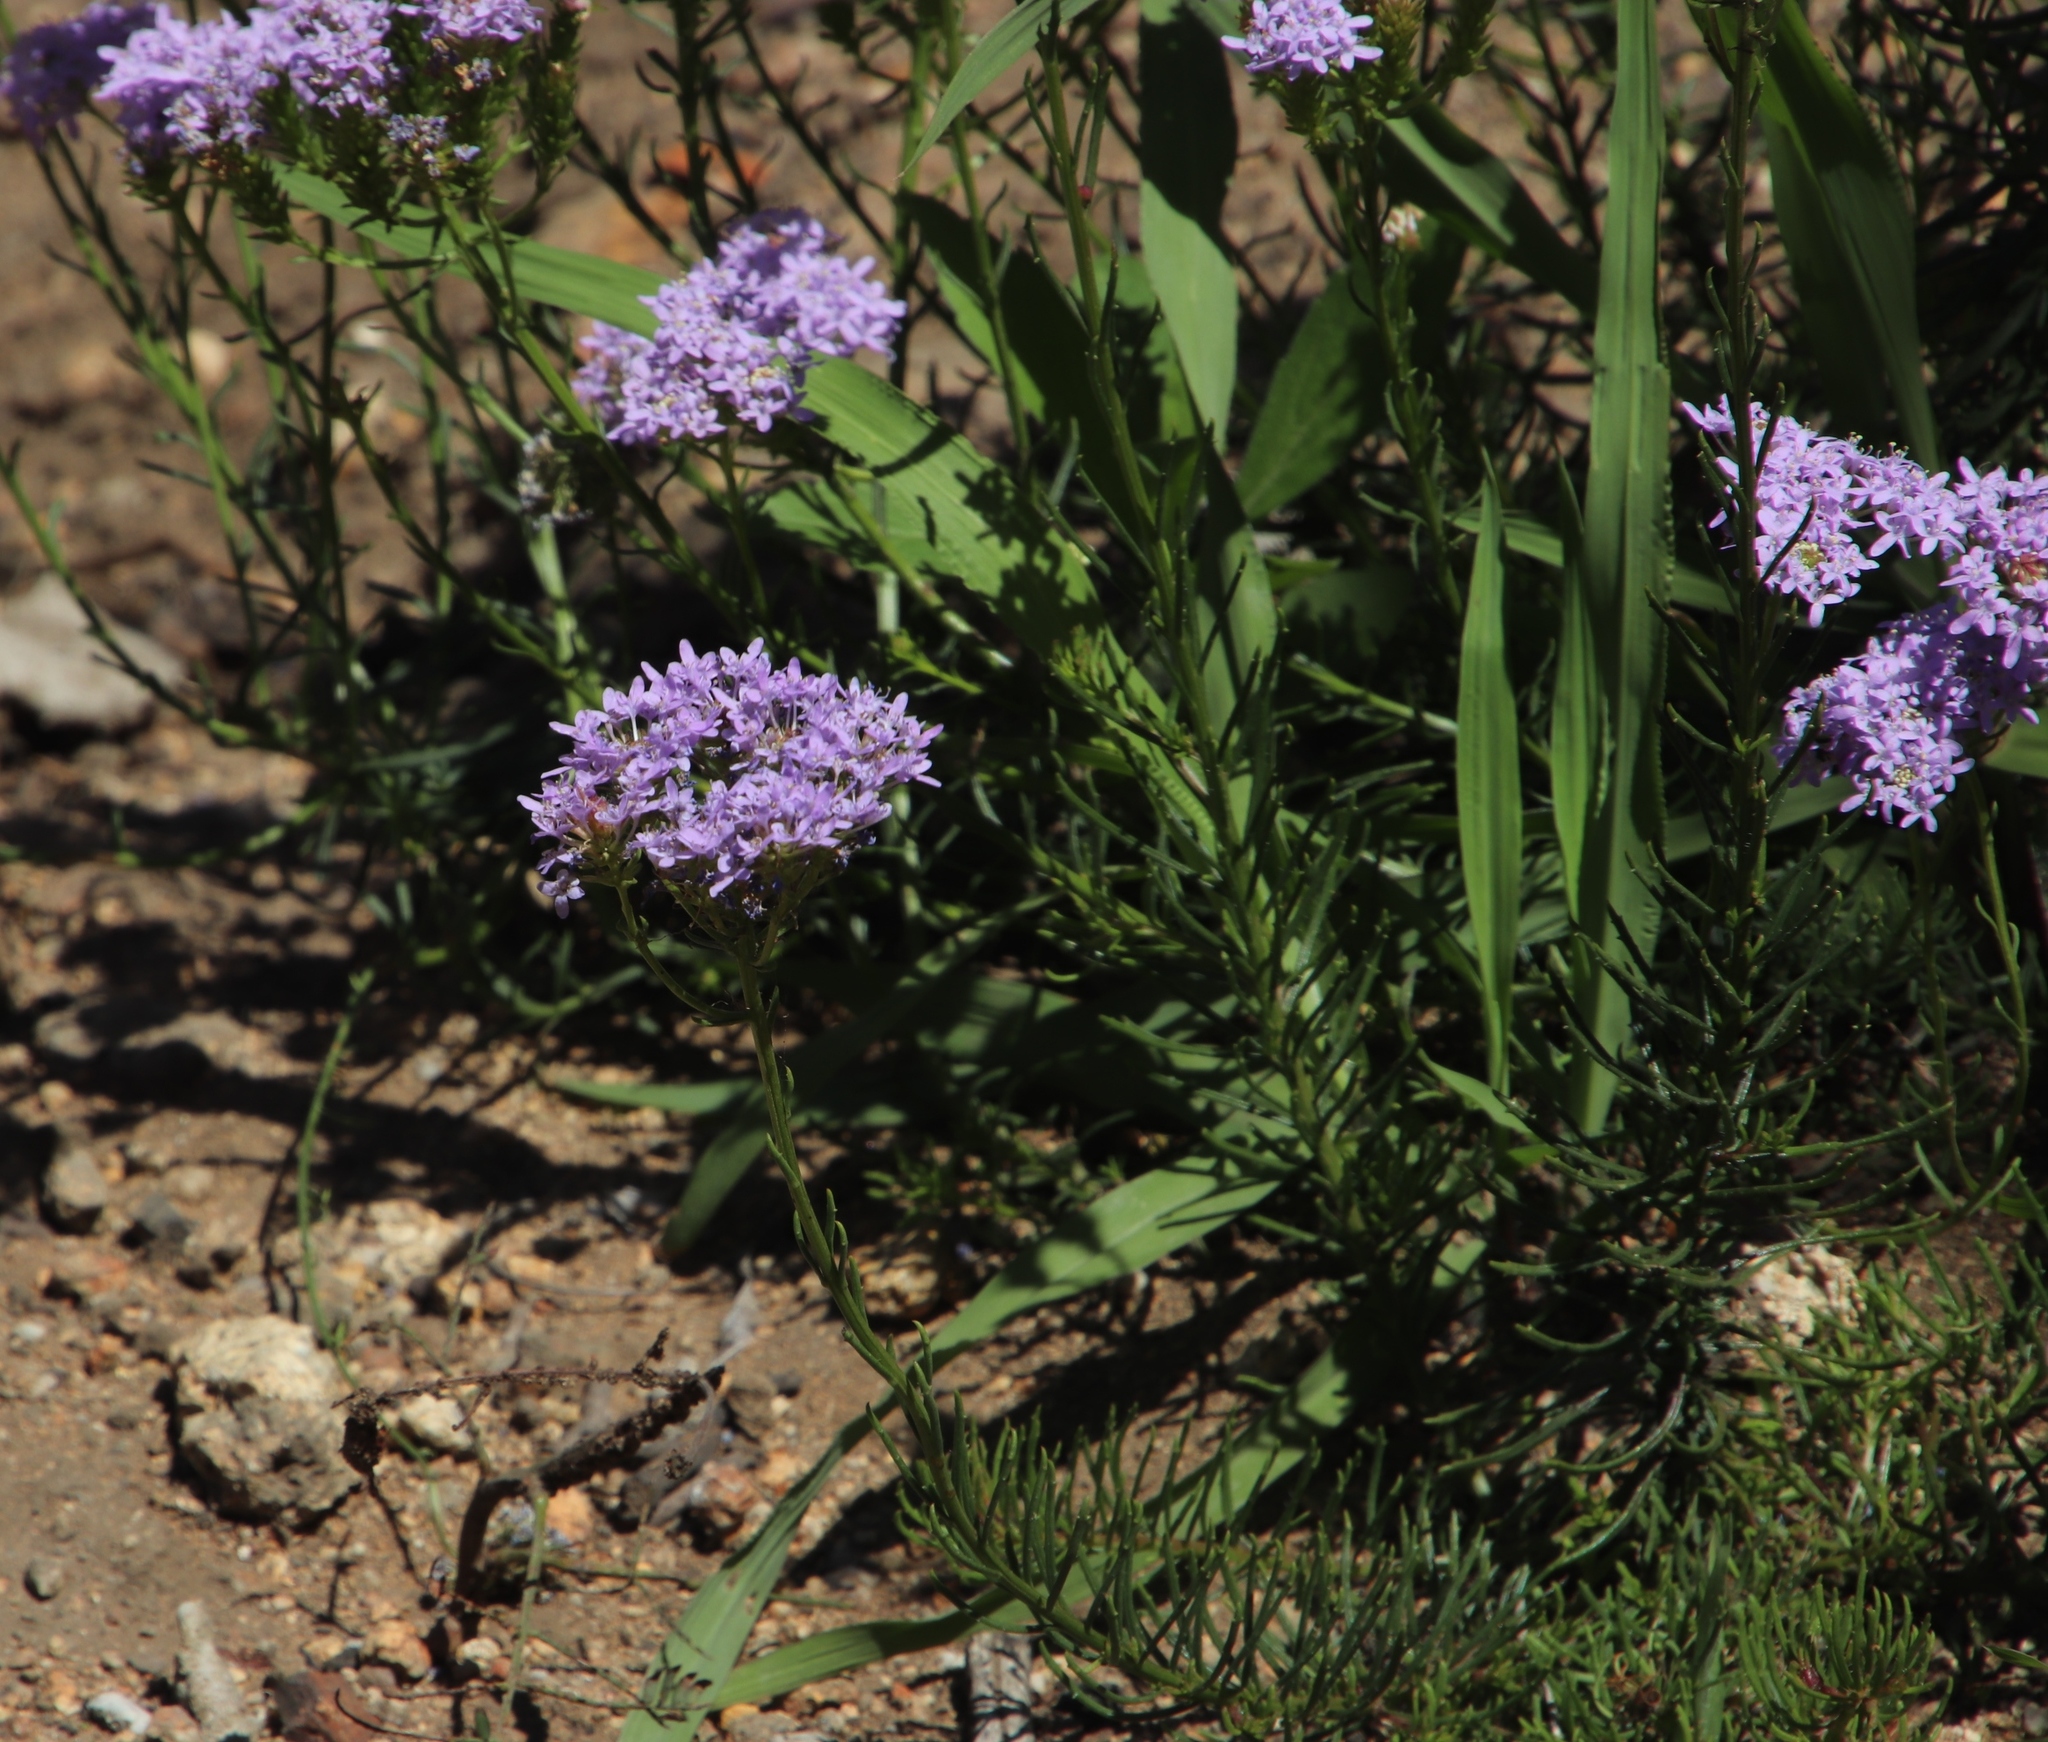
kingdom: Plantae
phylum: Tracheophyta
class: Magnoliopsida
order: Lamiales
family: Scrophulariaceae
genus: Pseudoselago
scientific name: Pseudoselago spuria
